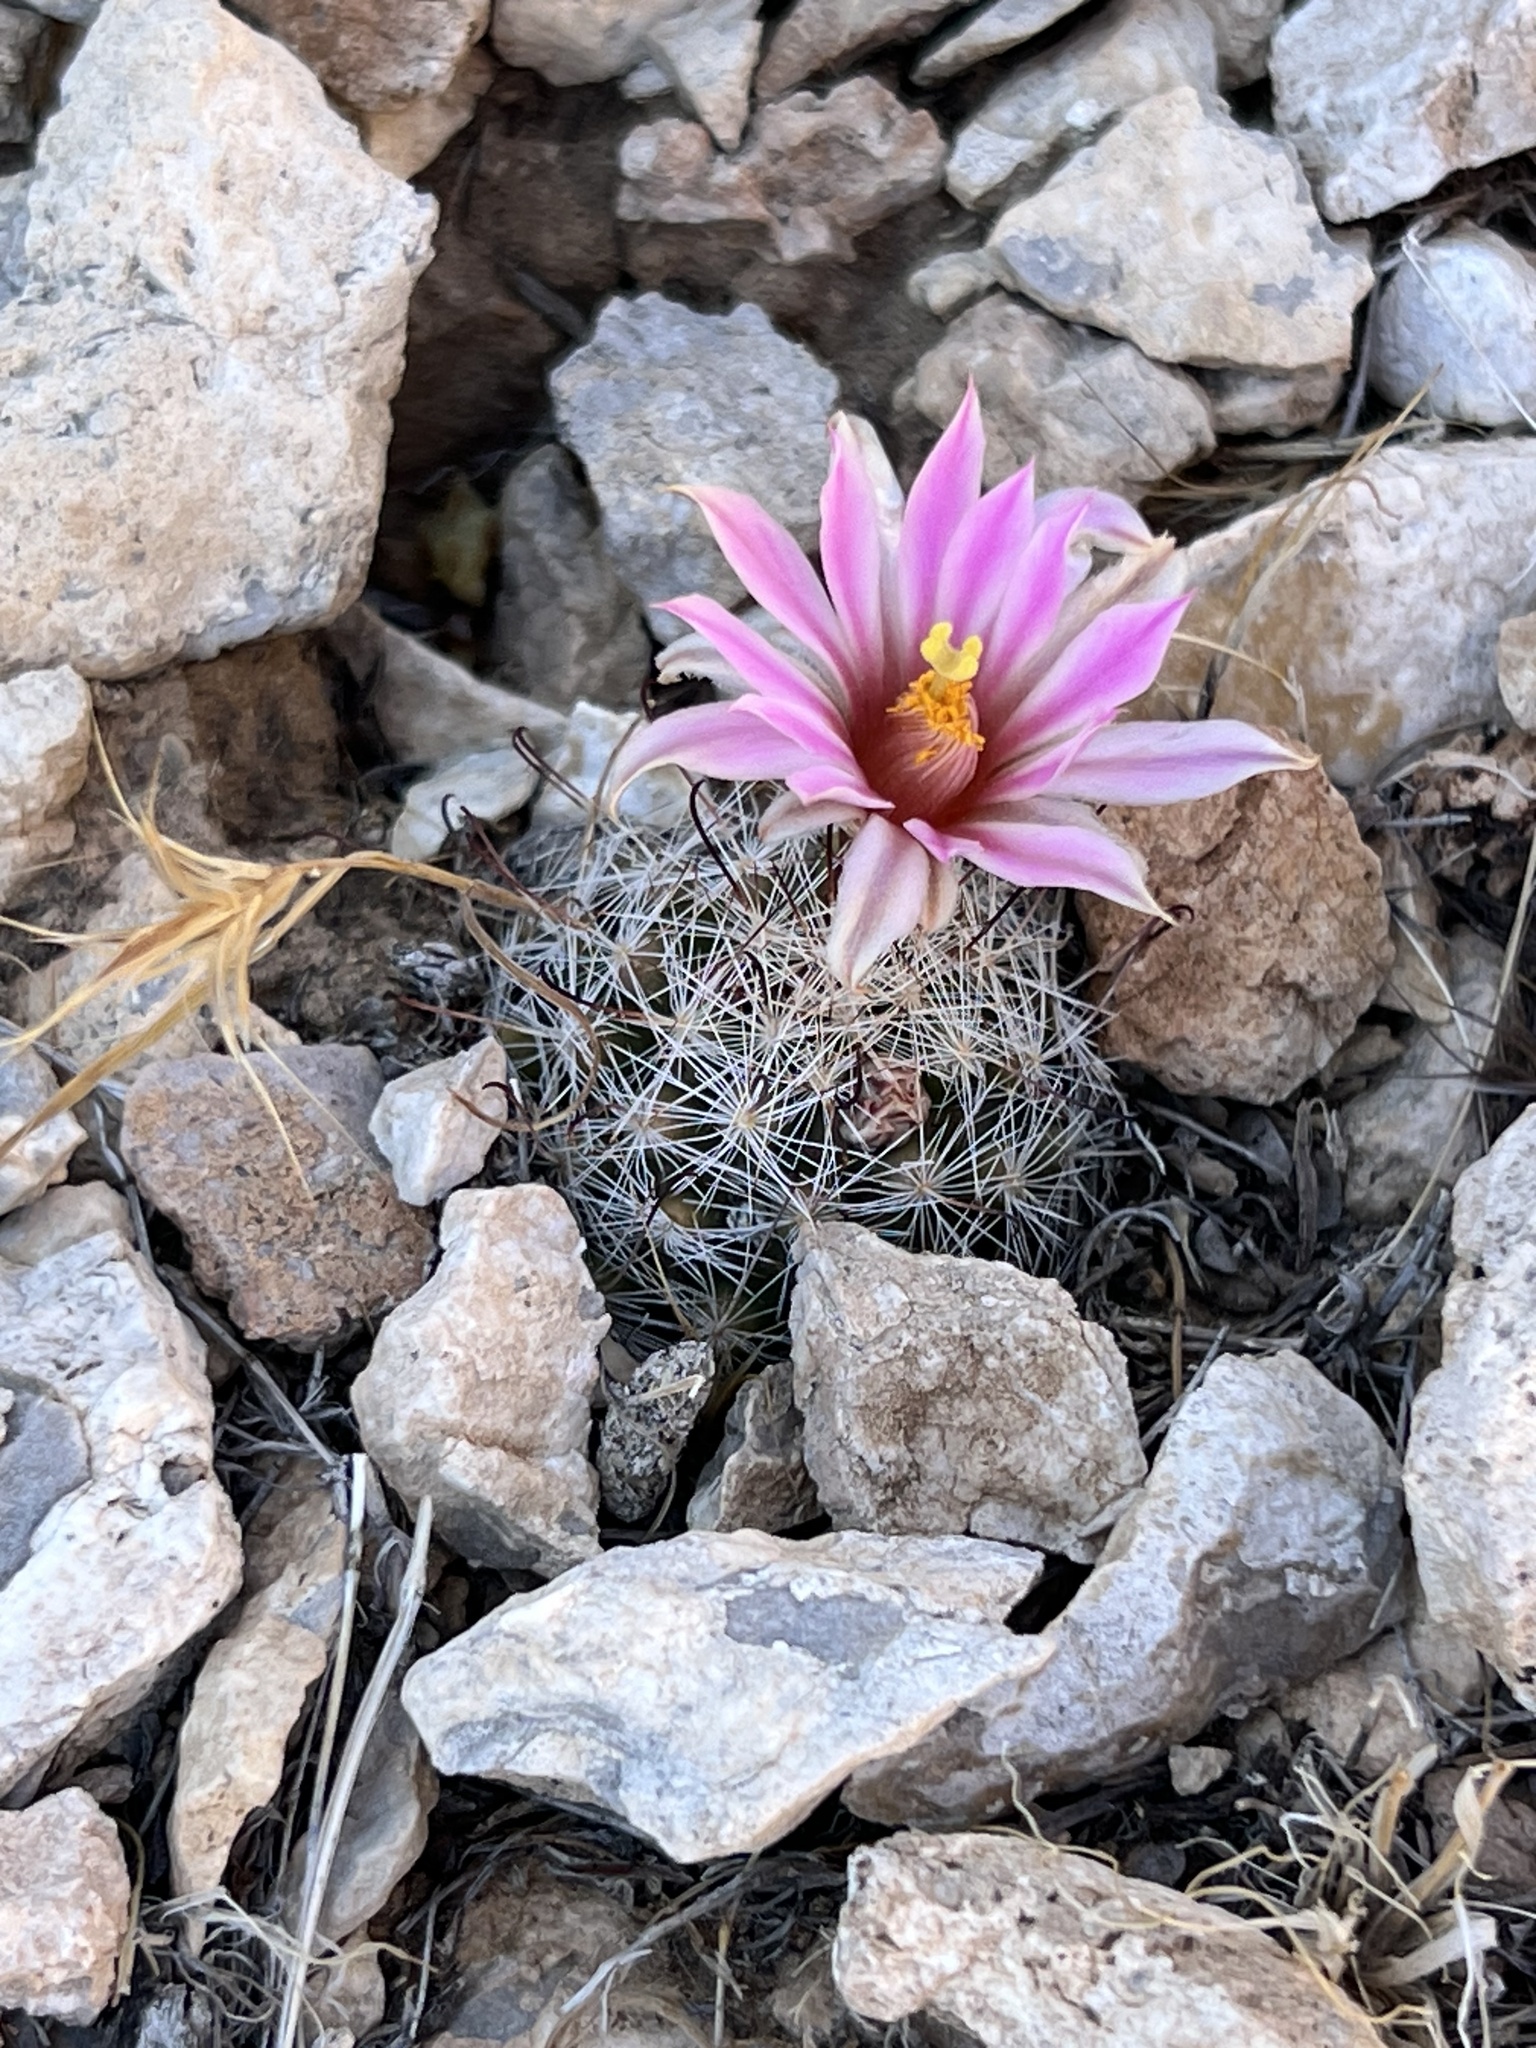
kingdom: Plantae
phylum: Tracheophyta
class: Magnoliopsida
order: Caryophyllales
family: Cactaceae
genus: Cochemiea
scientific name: Cochemiea tetrancistra
